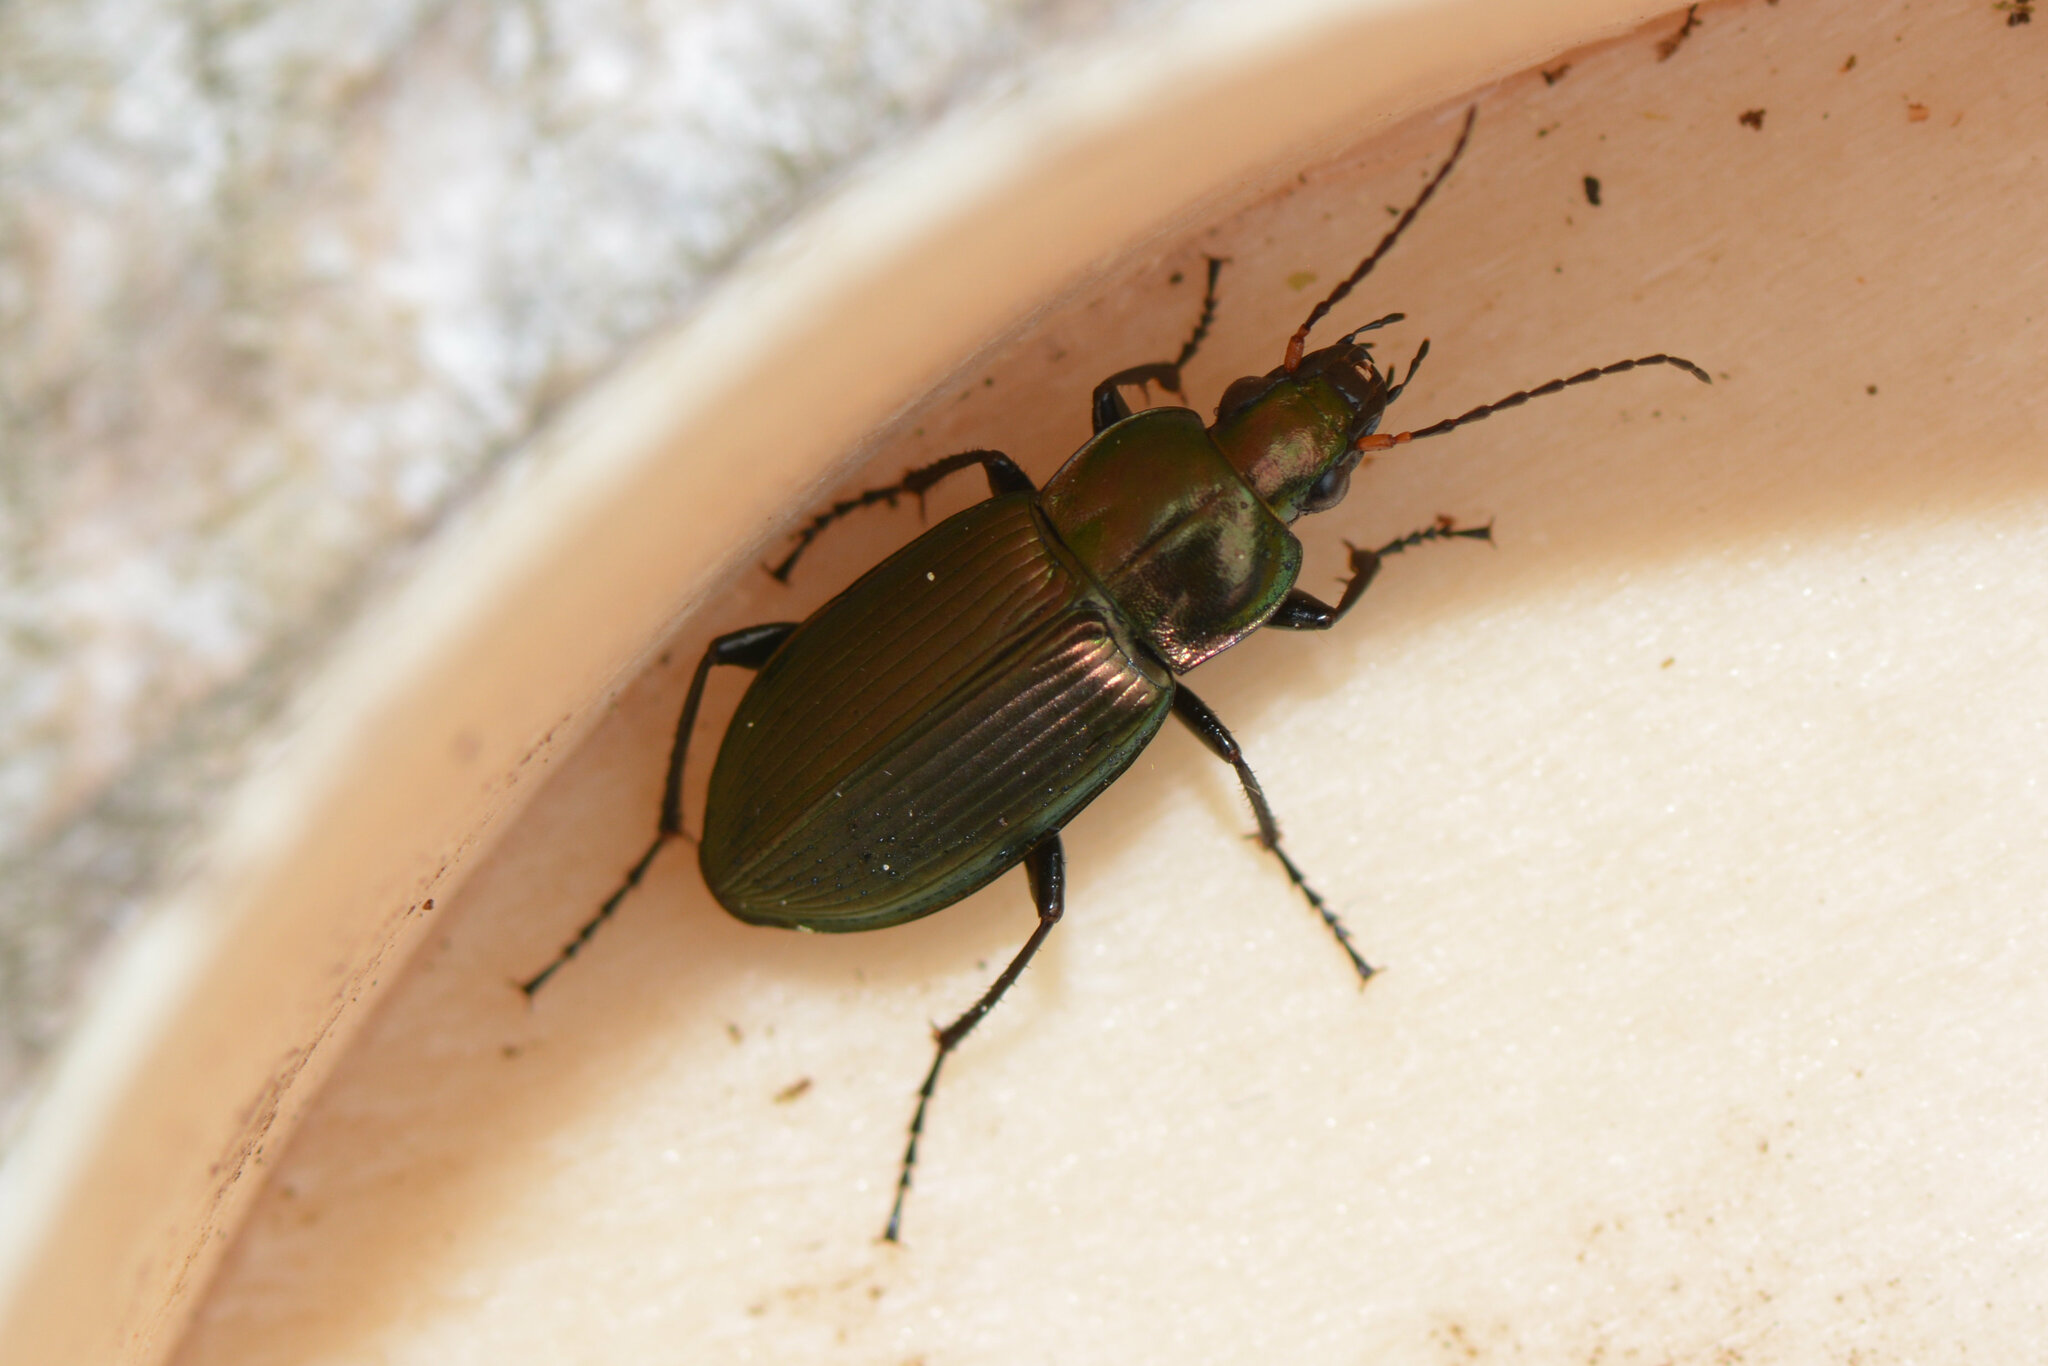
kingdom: Animalia
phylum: Arthropoda
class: Insecta
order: Coleoptera
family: Carabidae
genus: Poecilus
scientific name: Poecilus cupreus
